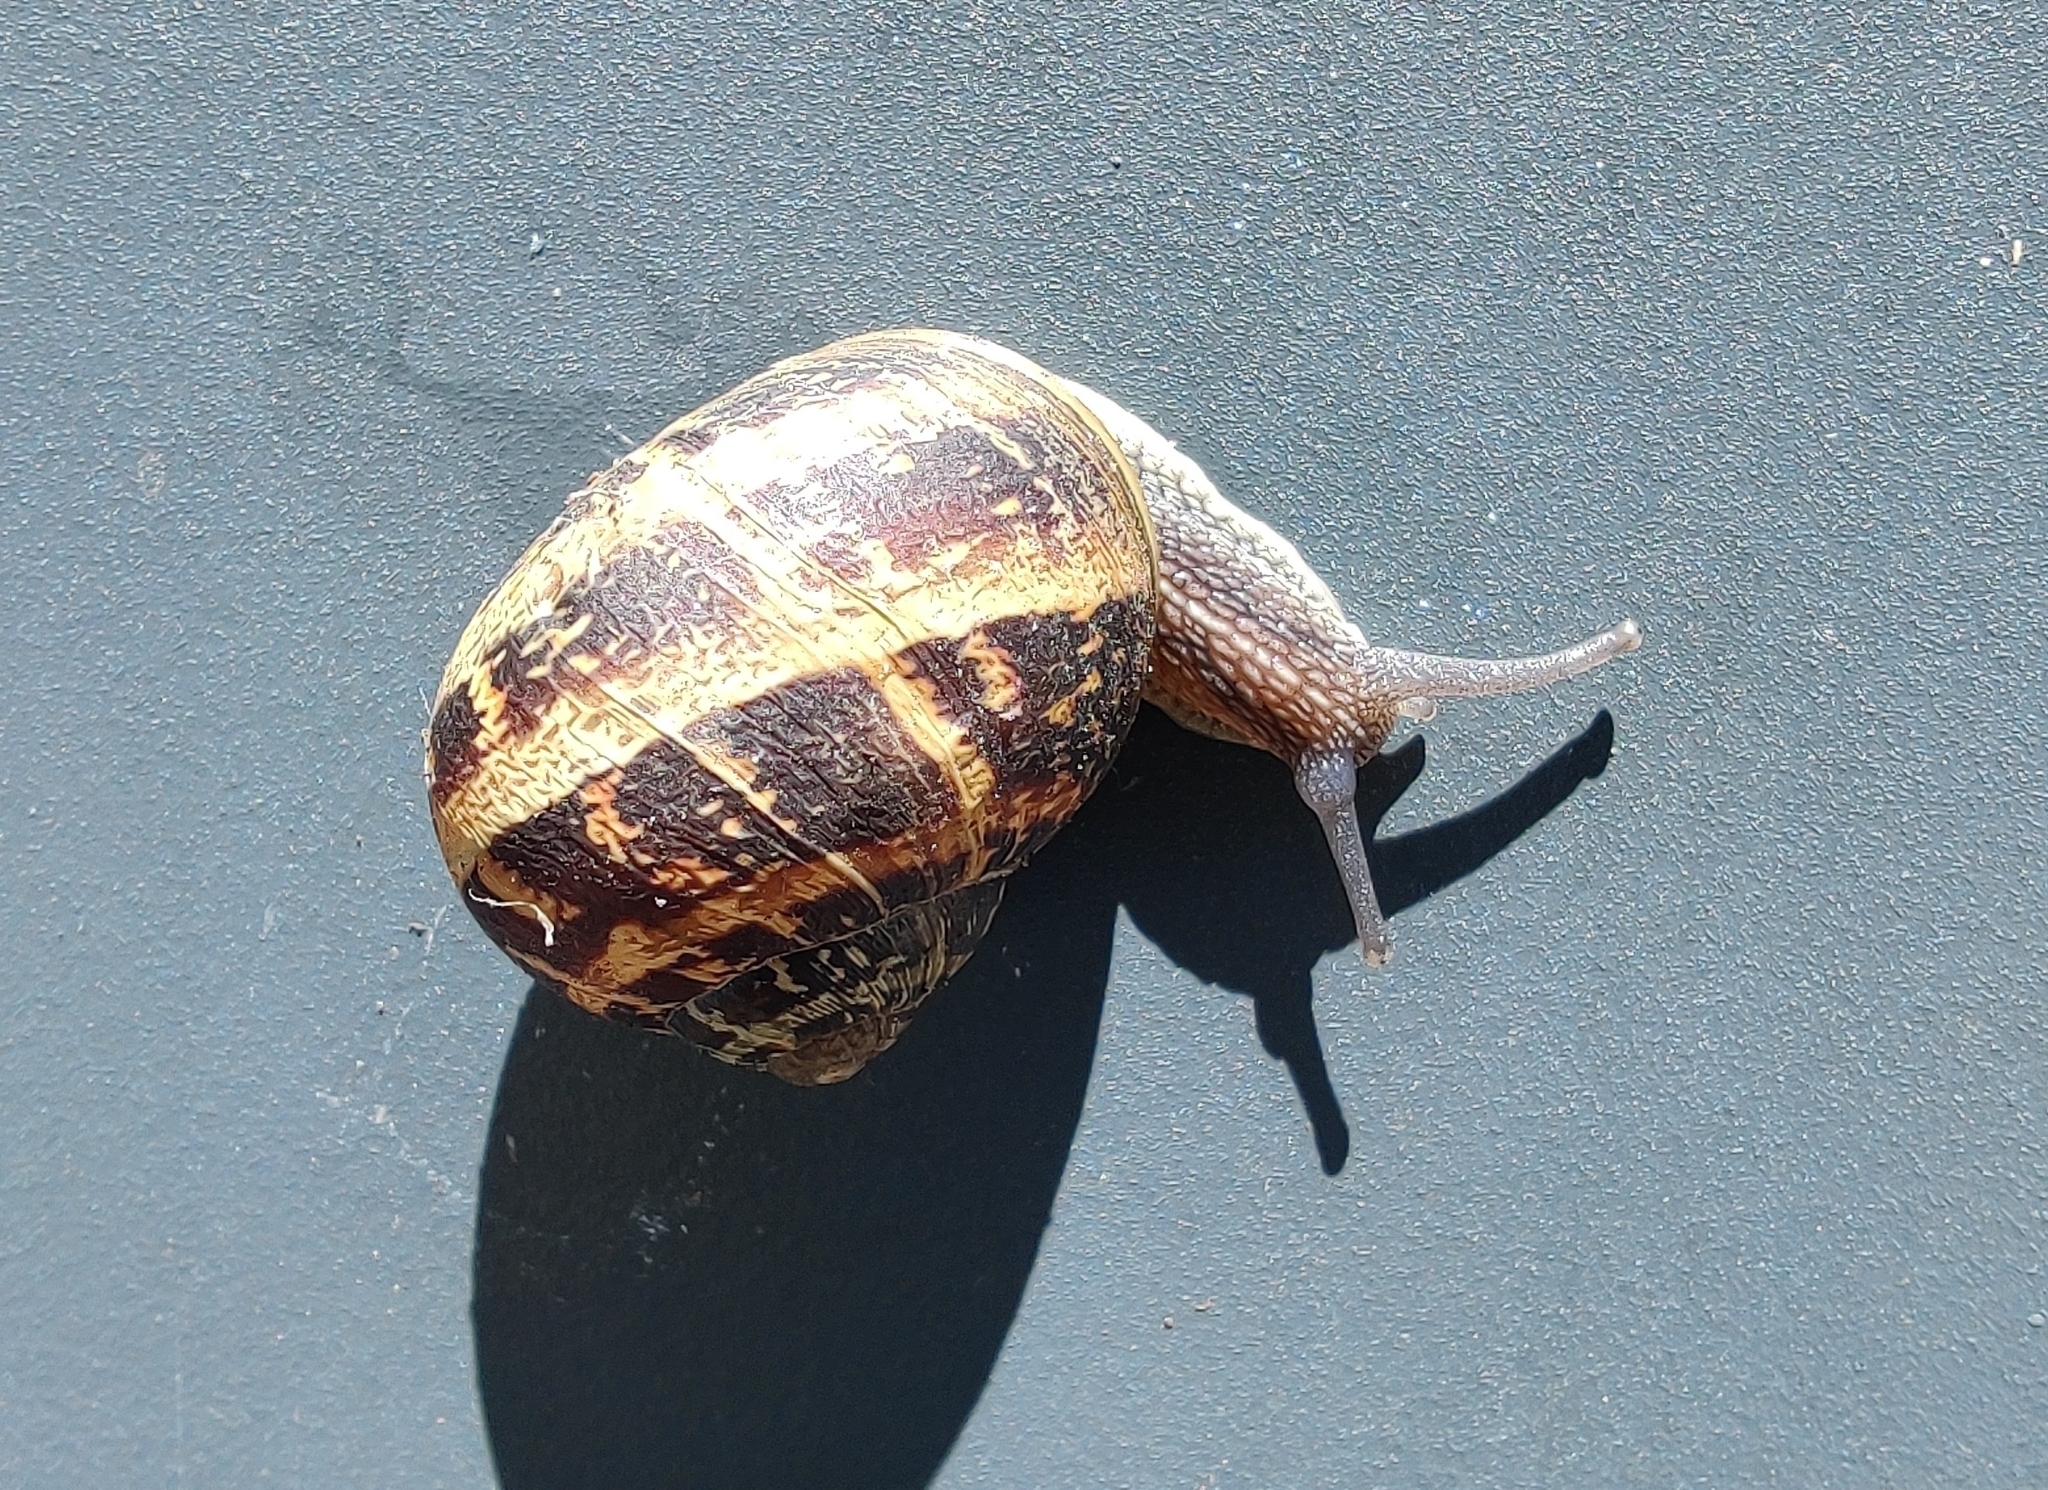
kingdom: Animalia
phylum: Mollusca
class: Gastropoda
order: Stylommatophora
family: Helicidae
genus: Cornu
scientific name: Cornu aspersum
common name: Brown garden snail
